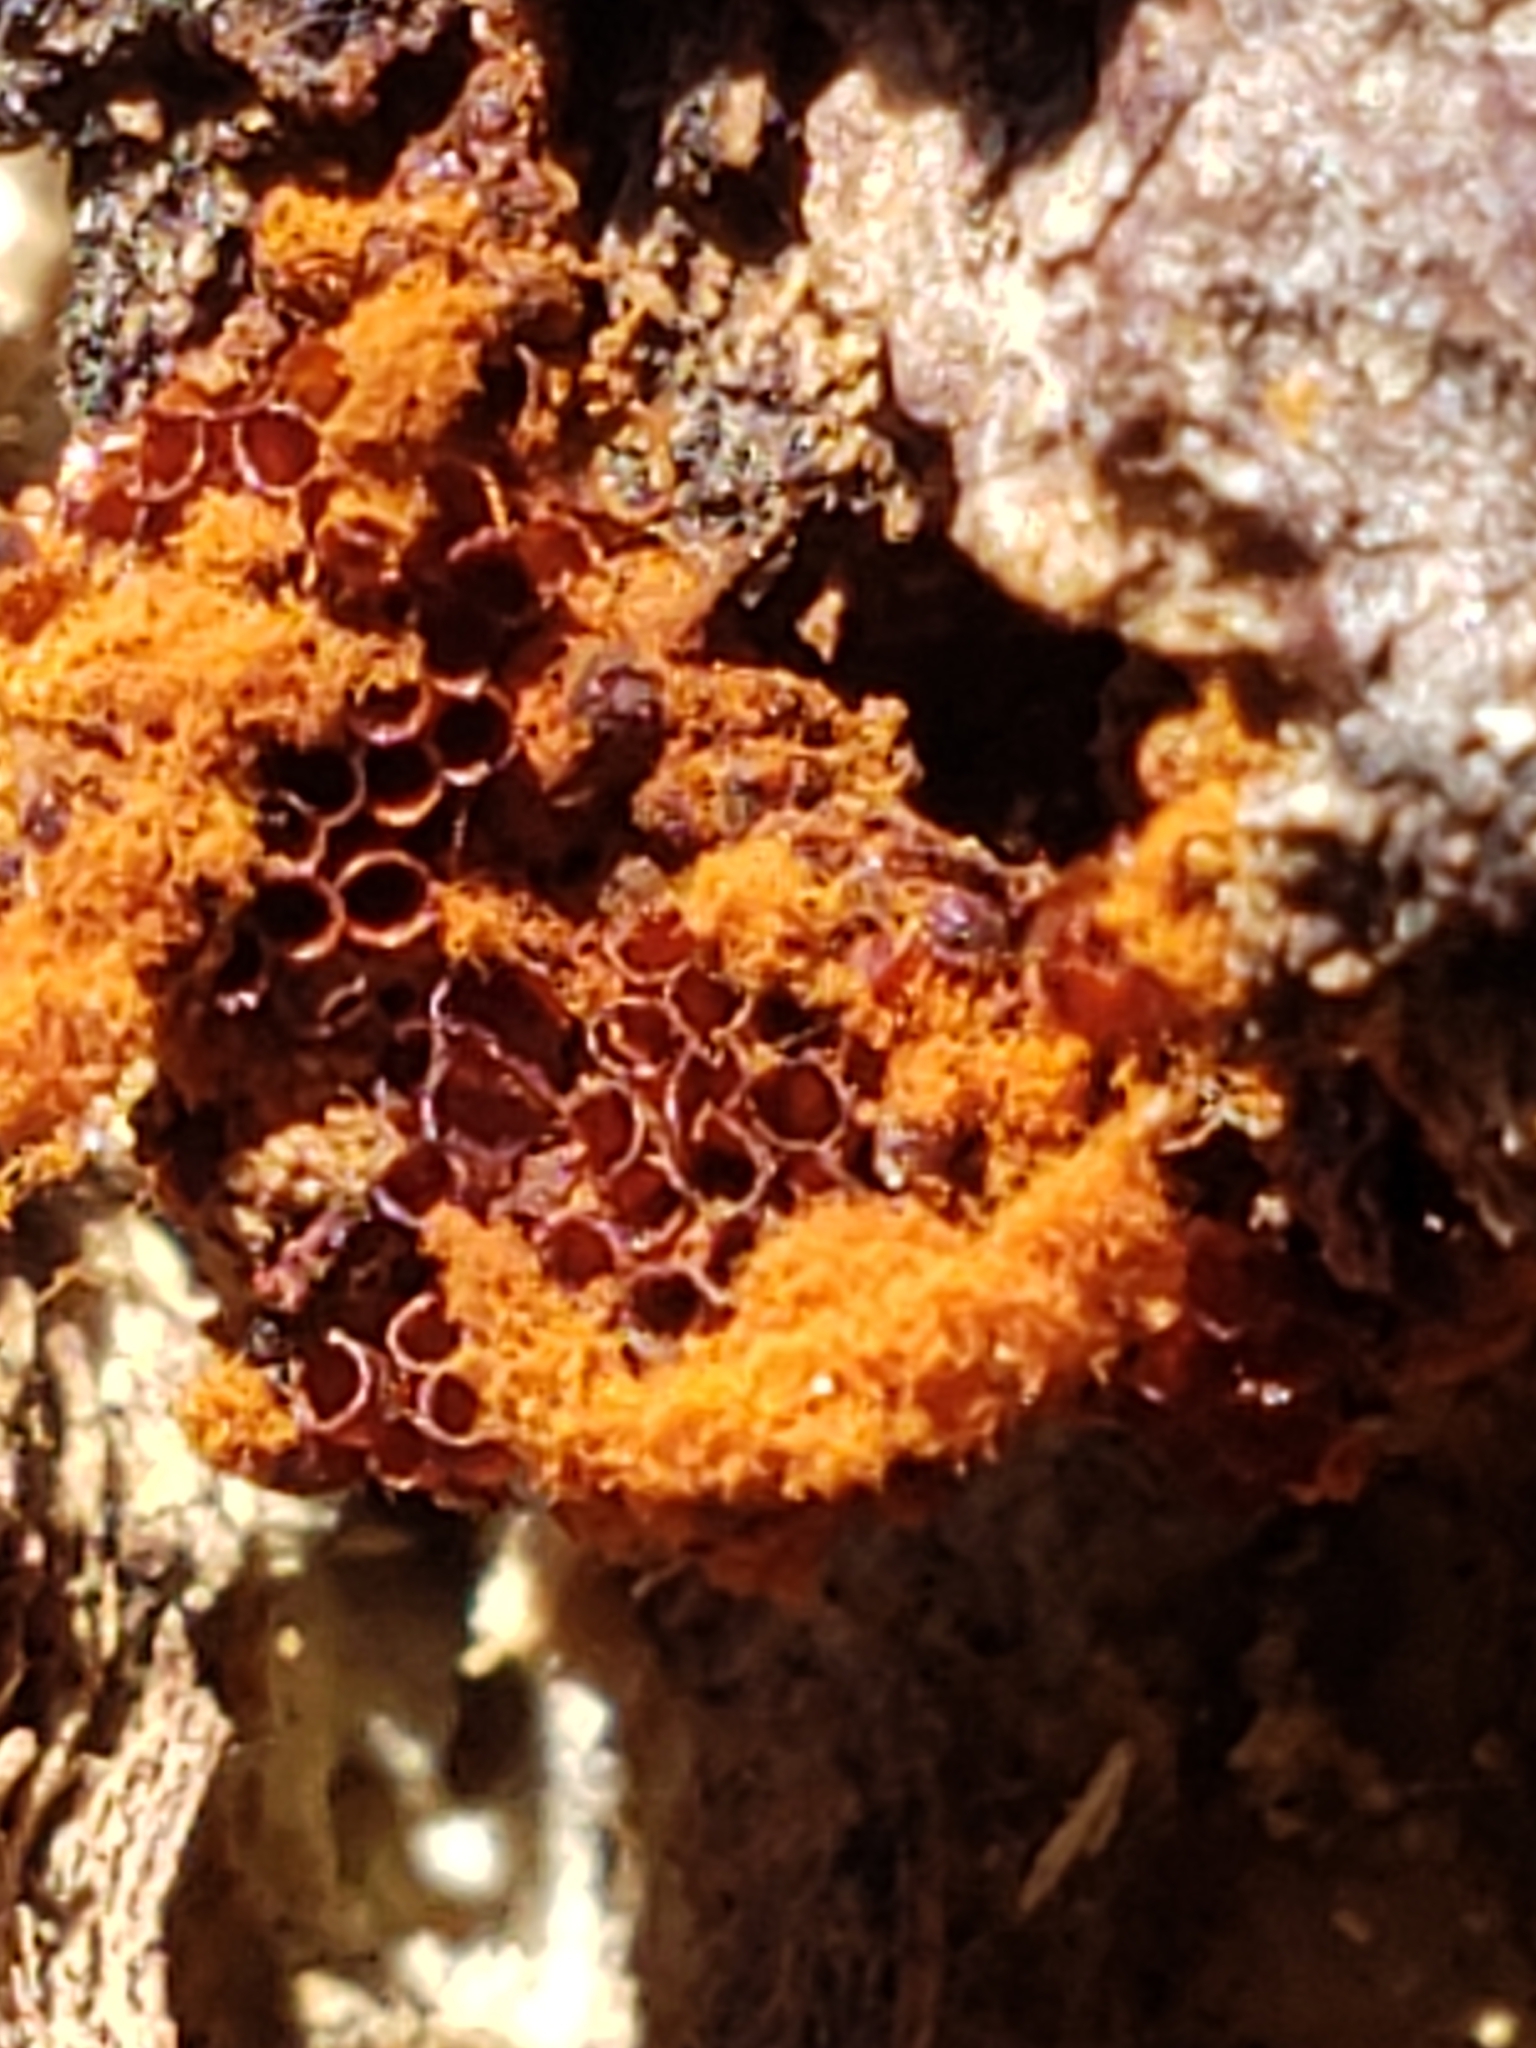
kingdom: Protozoa
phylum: Mycetozoa
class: Myxomycetes
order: Trichiales
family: Trichiaceae
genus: Metatrichia
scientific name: Metatrichia vesparia
